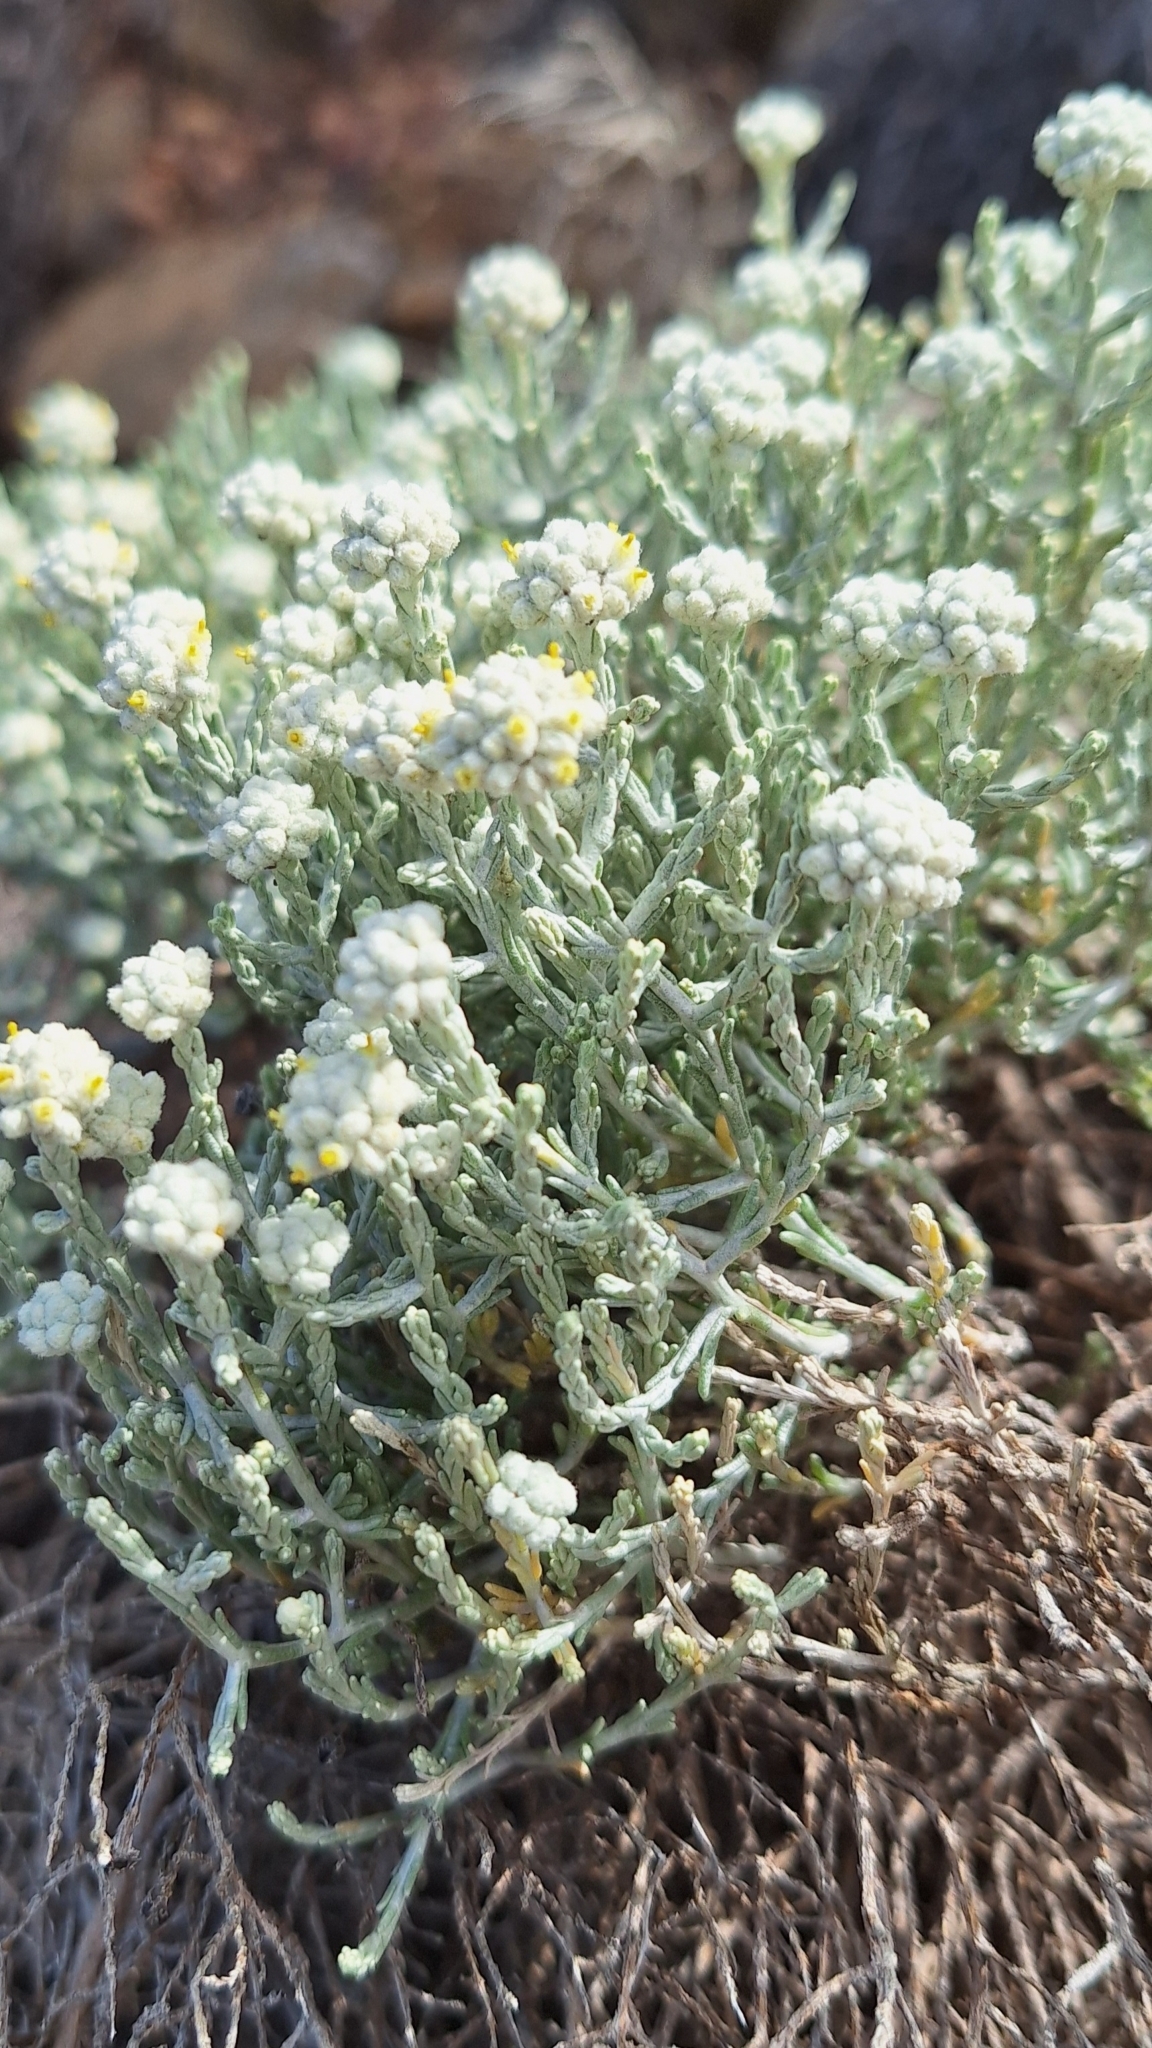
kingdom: Plantae
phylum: Tracheophyta
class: Magnoliopsida
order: Asterales
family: Asteraceae
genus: Calocephalus
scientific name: Calocephalus brownii
